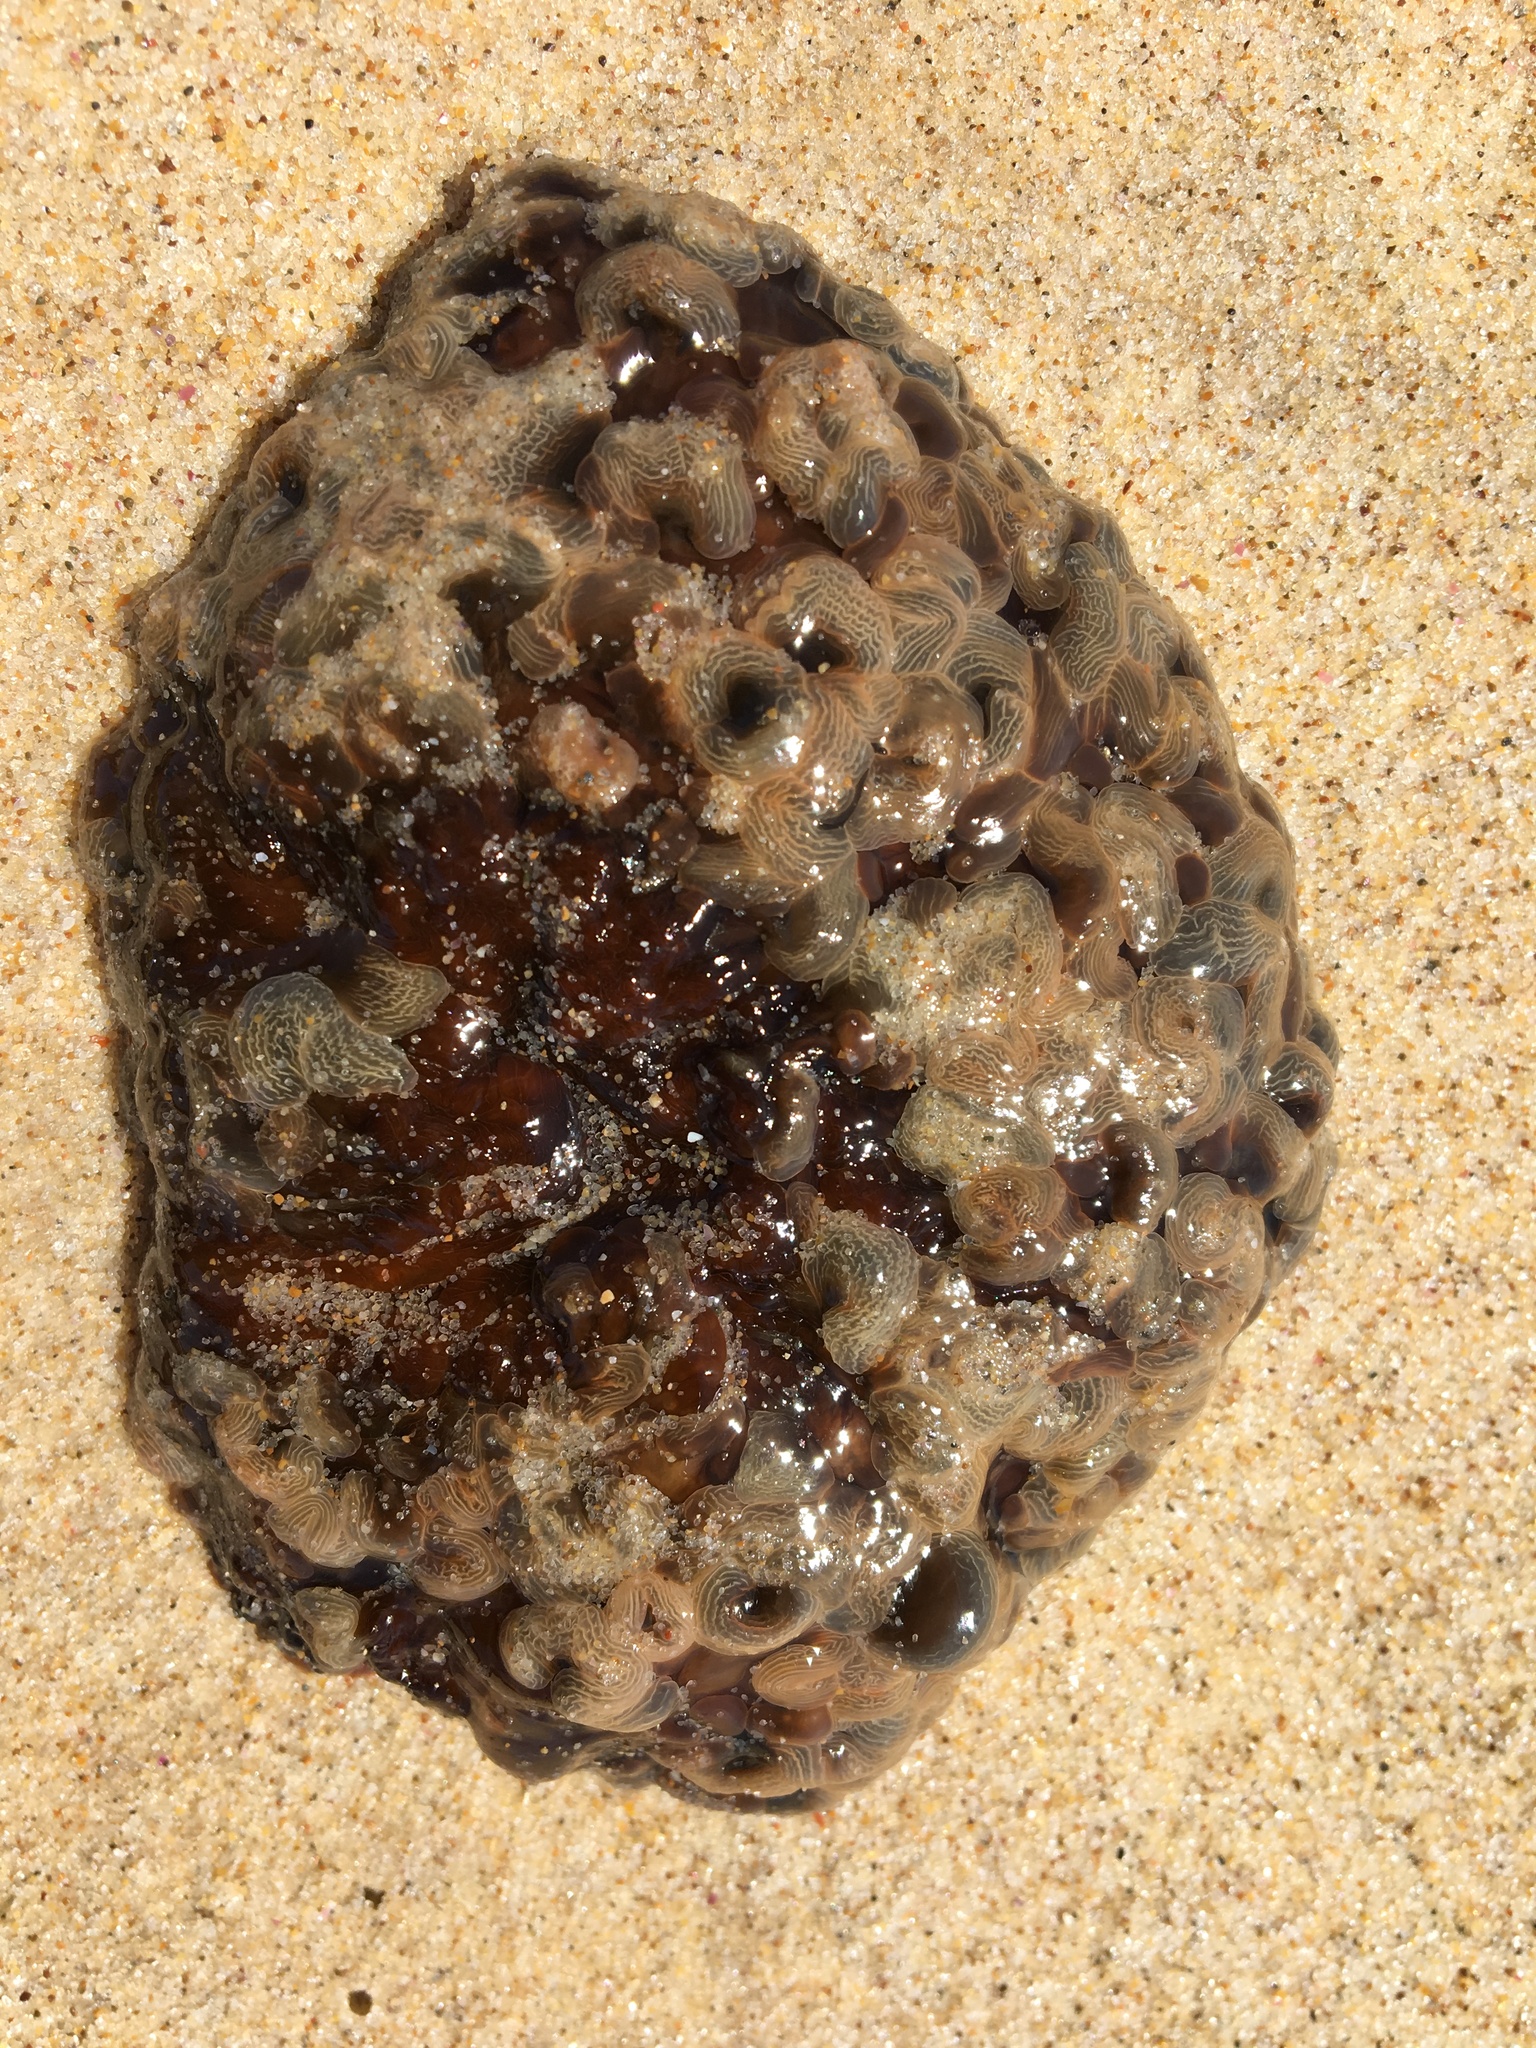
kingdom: Animalia
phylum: Cnidaria
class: Anthozoa
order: Actiniaria
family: Actiniidae
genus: Phlyctenactis
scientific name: Phlyctenactis tuberculosa
